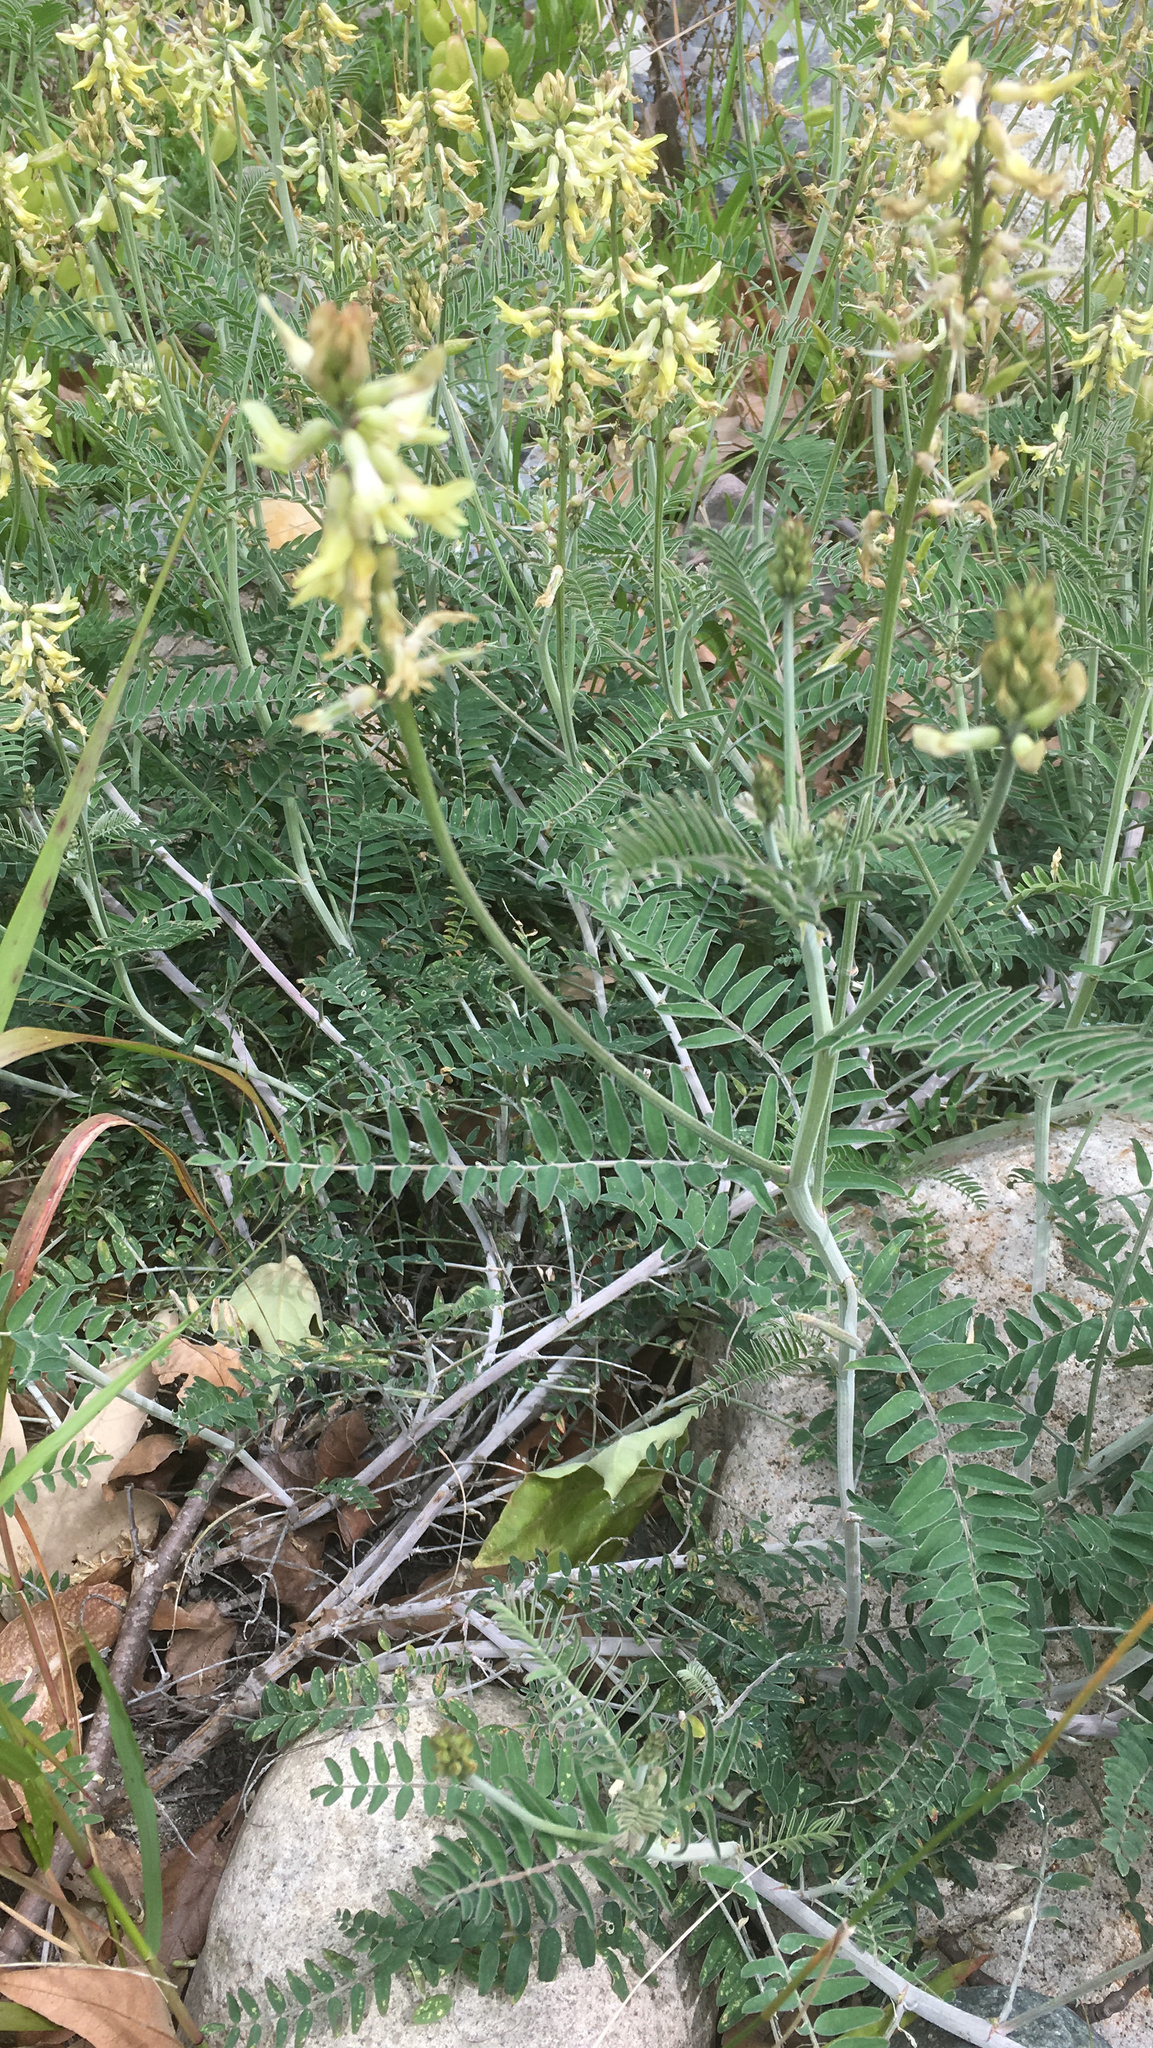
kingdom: Plantae
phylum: Tracheophyta
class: Magnoliopsida
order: Fabales
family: Fabaceae
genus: Astragalus
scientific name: Astragalus trichopodus
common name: Santa barbara milk-vetch
